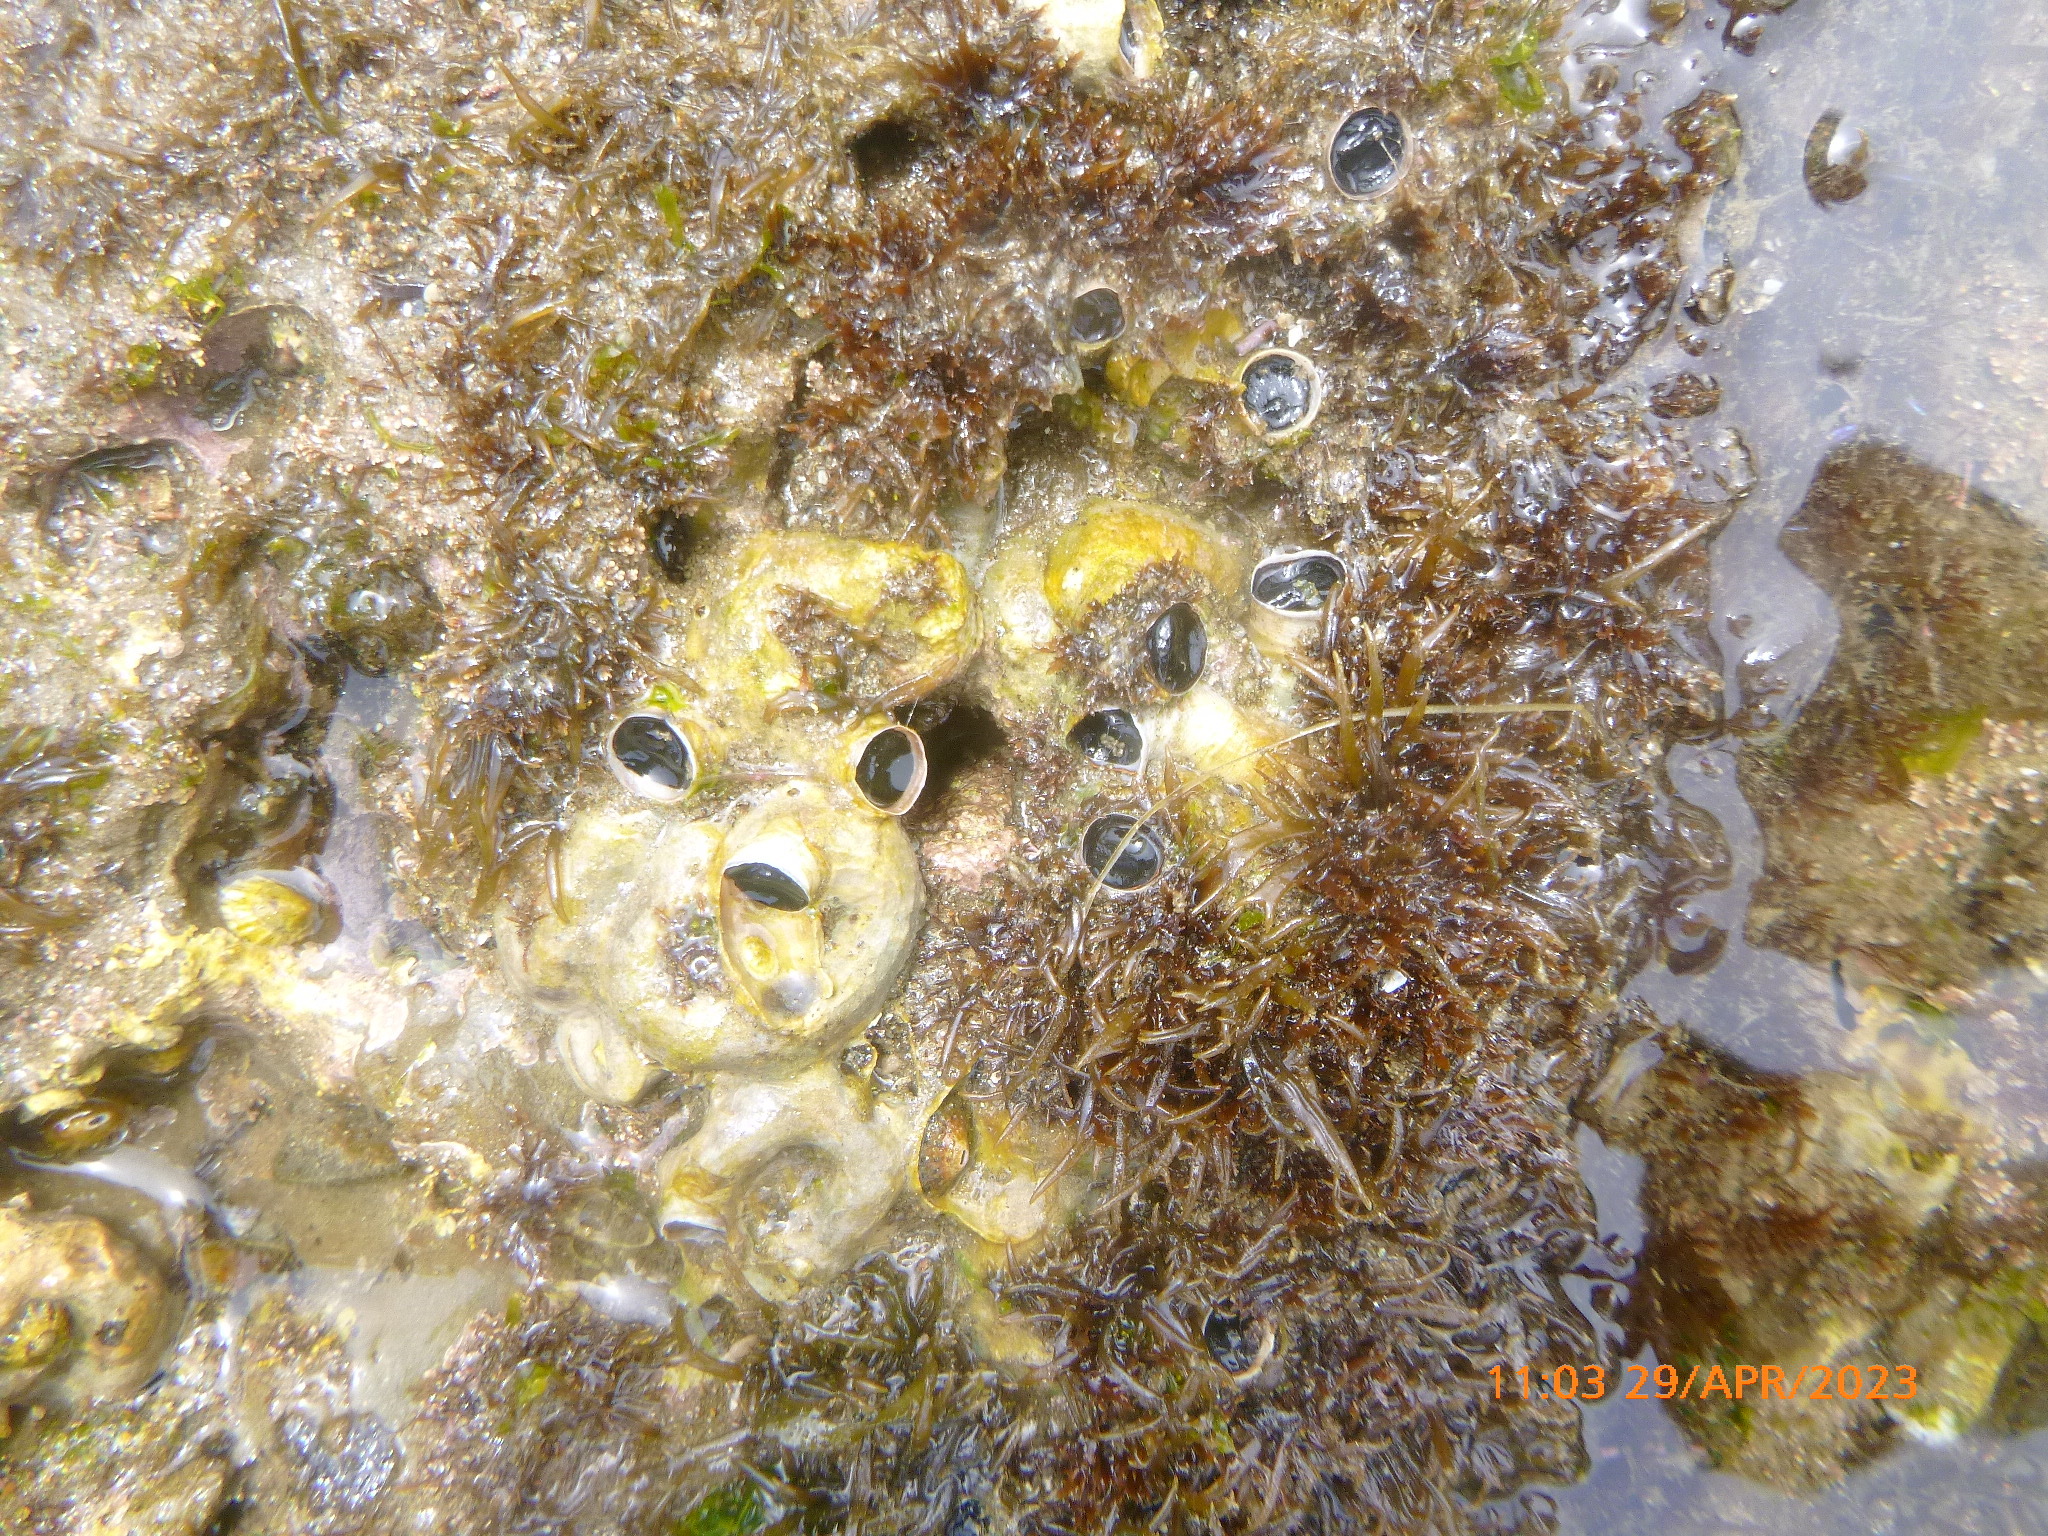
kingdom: Animalia
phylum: Mollusca
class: Gastropoda
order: Littorinimorpha
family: Vermetidae
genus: Thylacodes
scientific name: Thylacodes squamigerus
